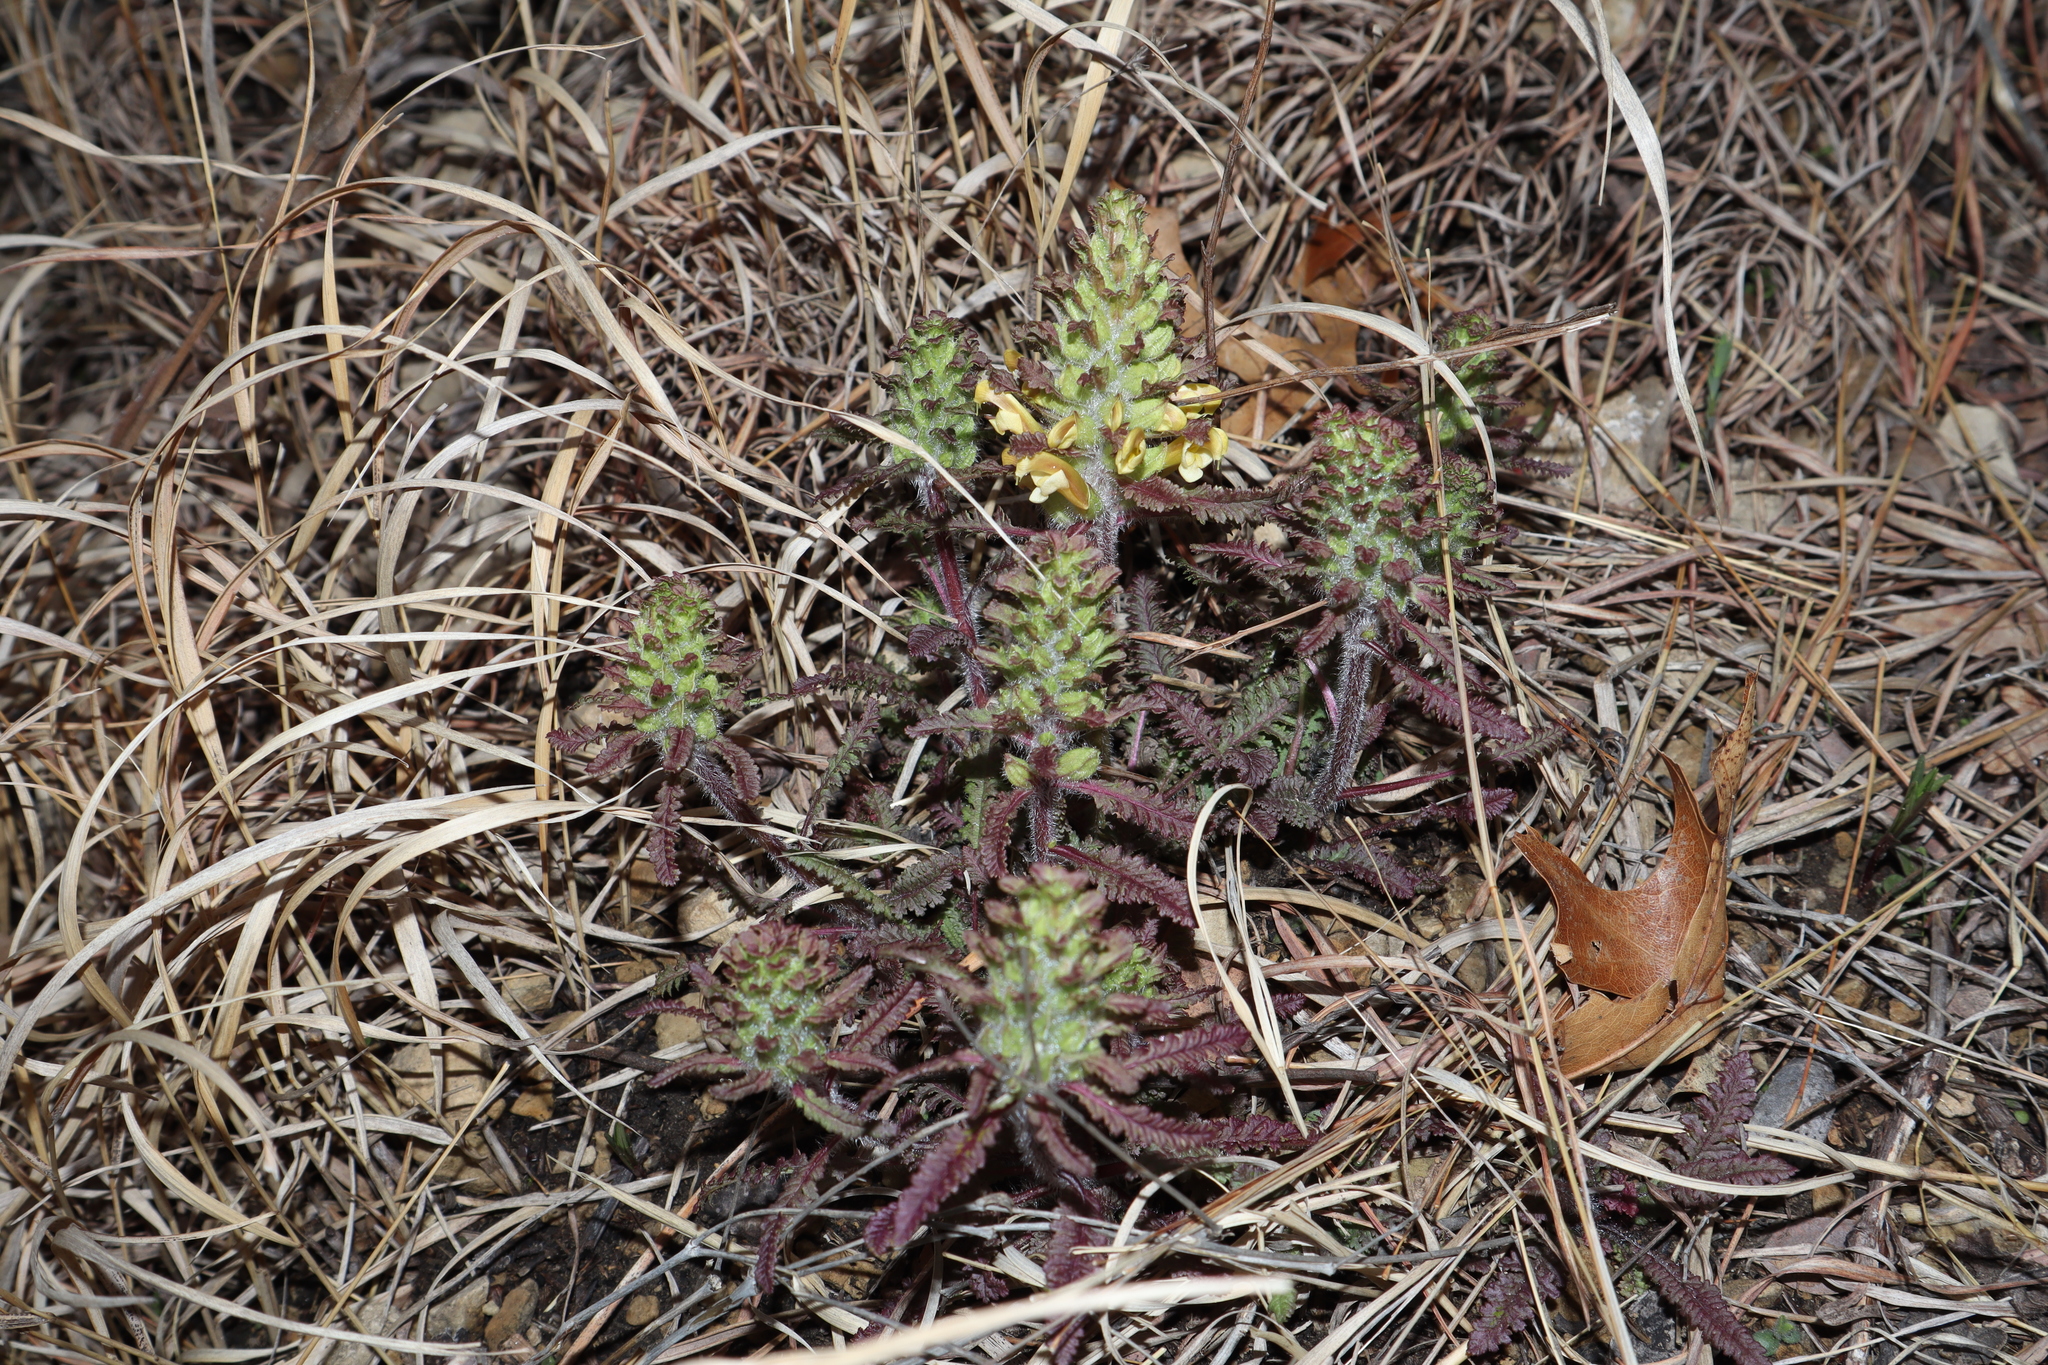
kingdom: Plantae
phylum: Tracheophyta
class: Magnoliopsida
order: Lamiales
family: Orobanchaceae
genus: Pedicularis
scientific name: Pedicularis canadensis
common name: Early lousewort
